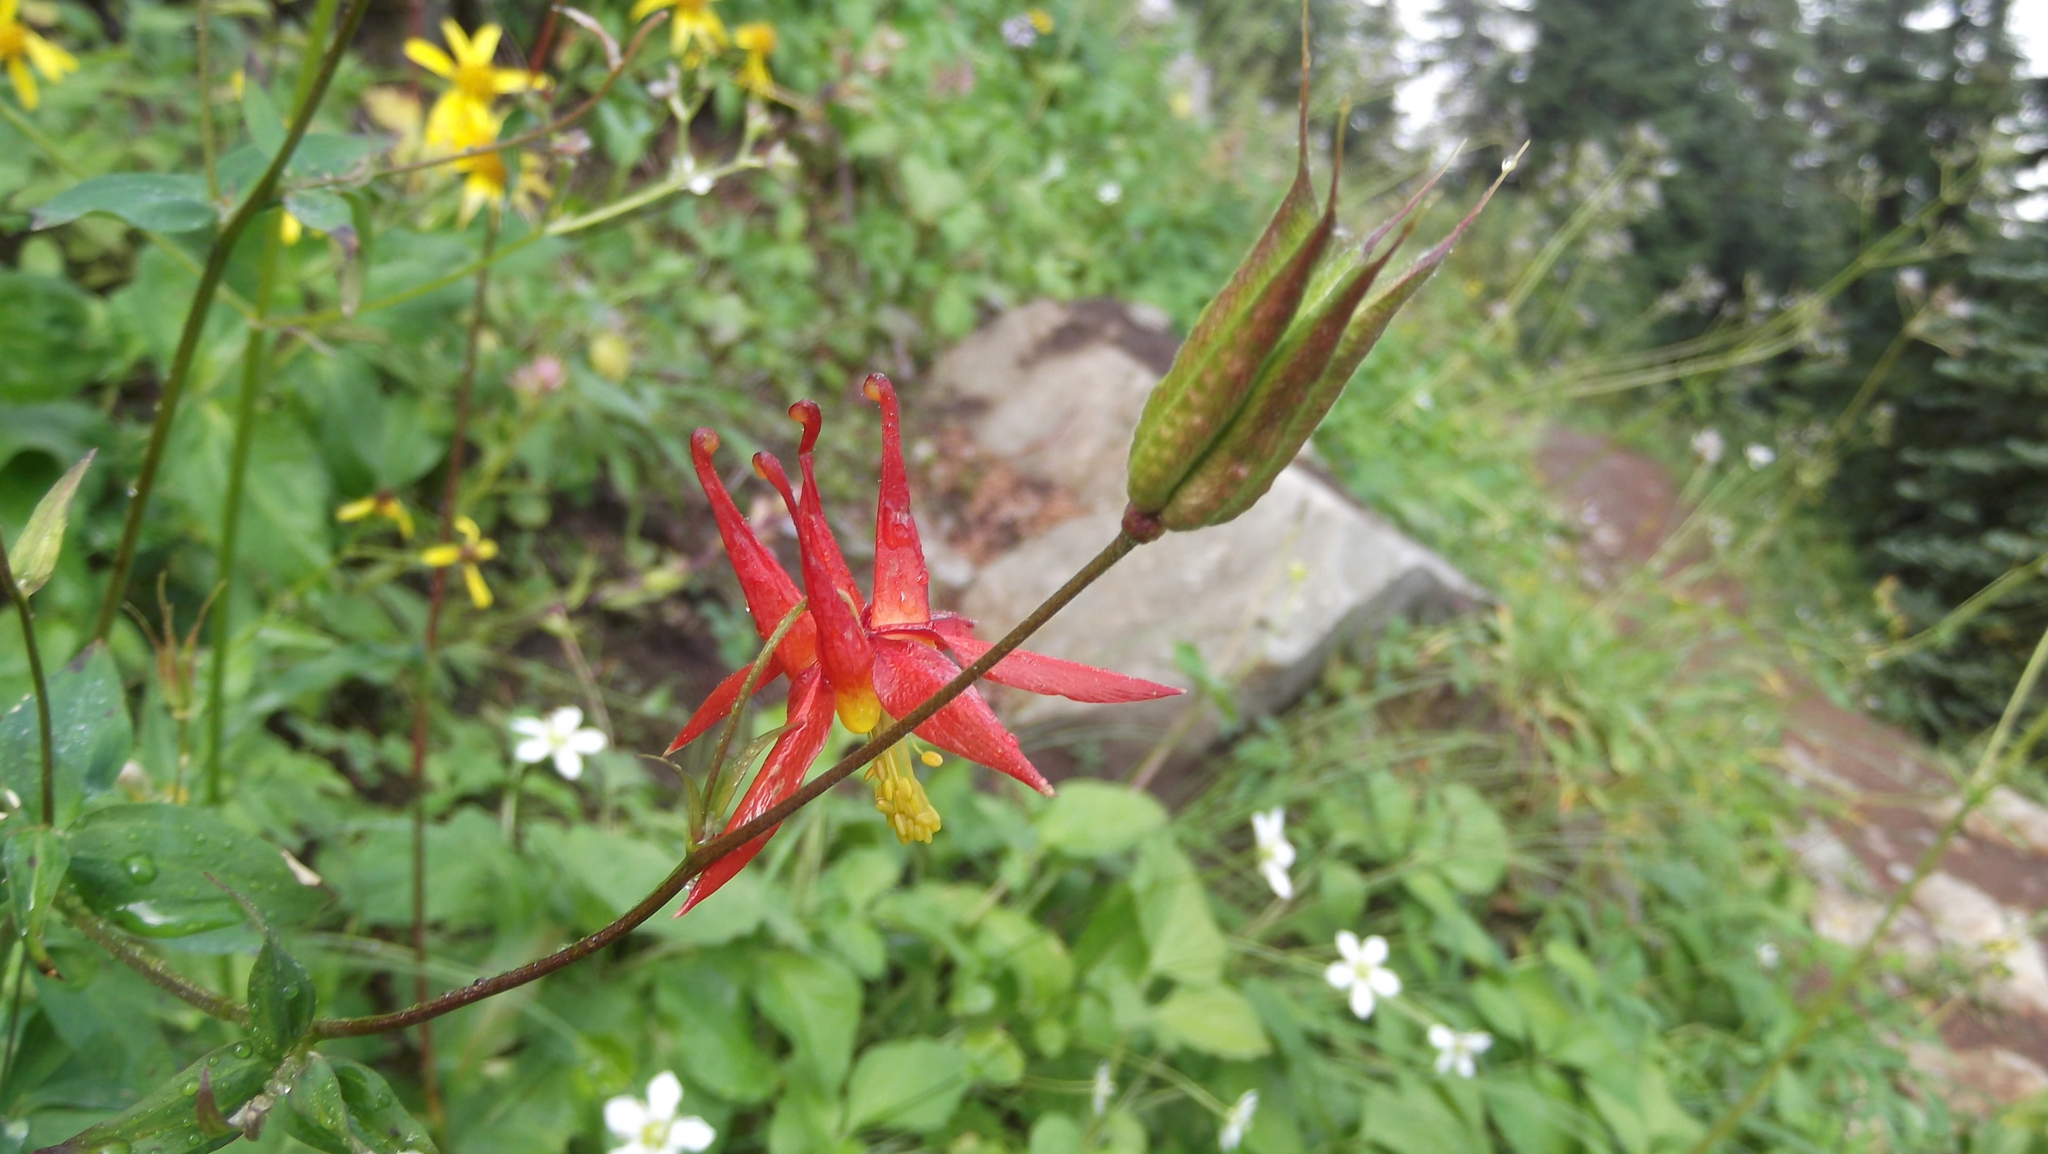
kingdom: Plantae
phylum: Tracheophyta
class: Magnoliopsida
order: Ranunculales
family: Ranunculaceae
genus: Aquilegia
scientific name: Aquilegia formosa
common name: Sitka columbine
